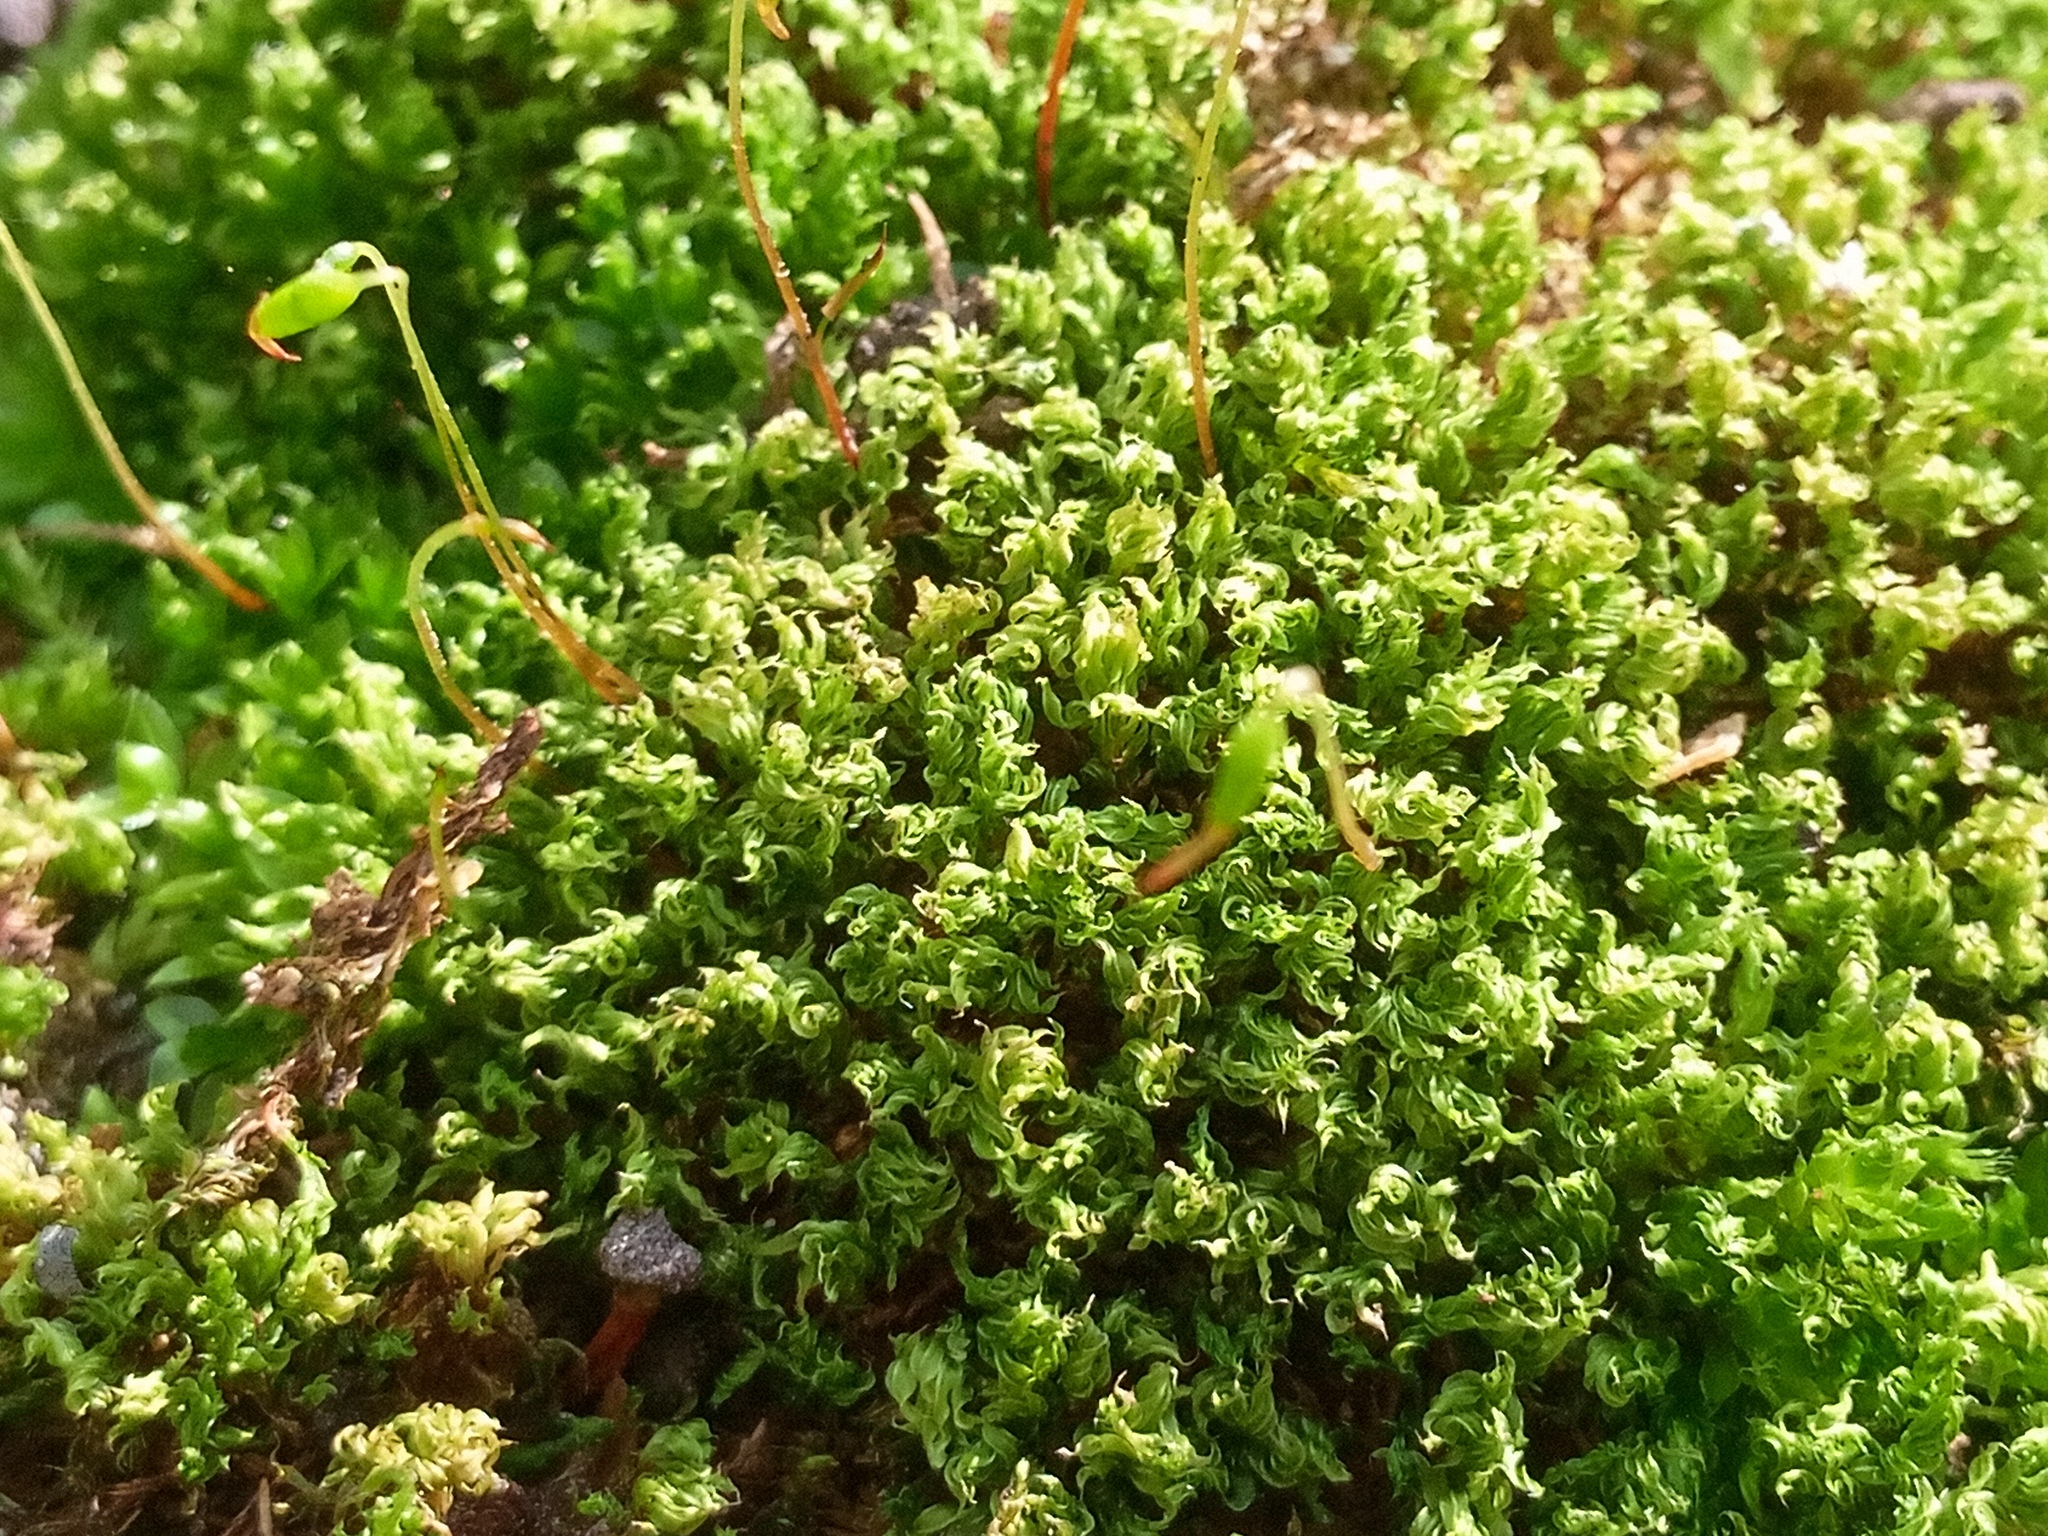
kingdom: Plantae
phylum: Bryophyta
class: Bryopsida
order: Bryales
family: Mniaceae
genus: Mnium
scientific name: Mnium hornum
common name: Swan's-neck leafy moss
